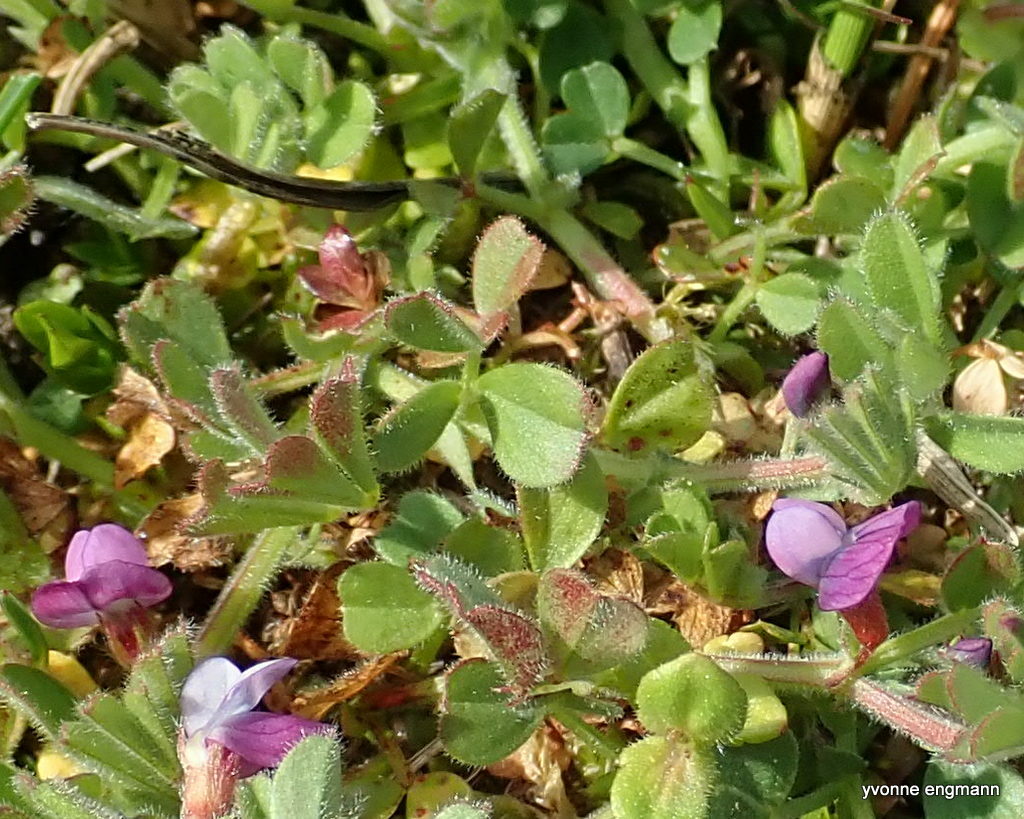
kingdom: Plantae
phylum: Tracheophyta
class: Magnoliopsida
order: Fabales
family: Fabaceae
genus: Vicia
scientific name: Vicia lathyroides
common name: Spring vetch
